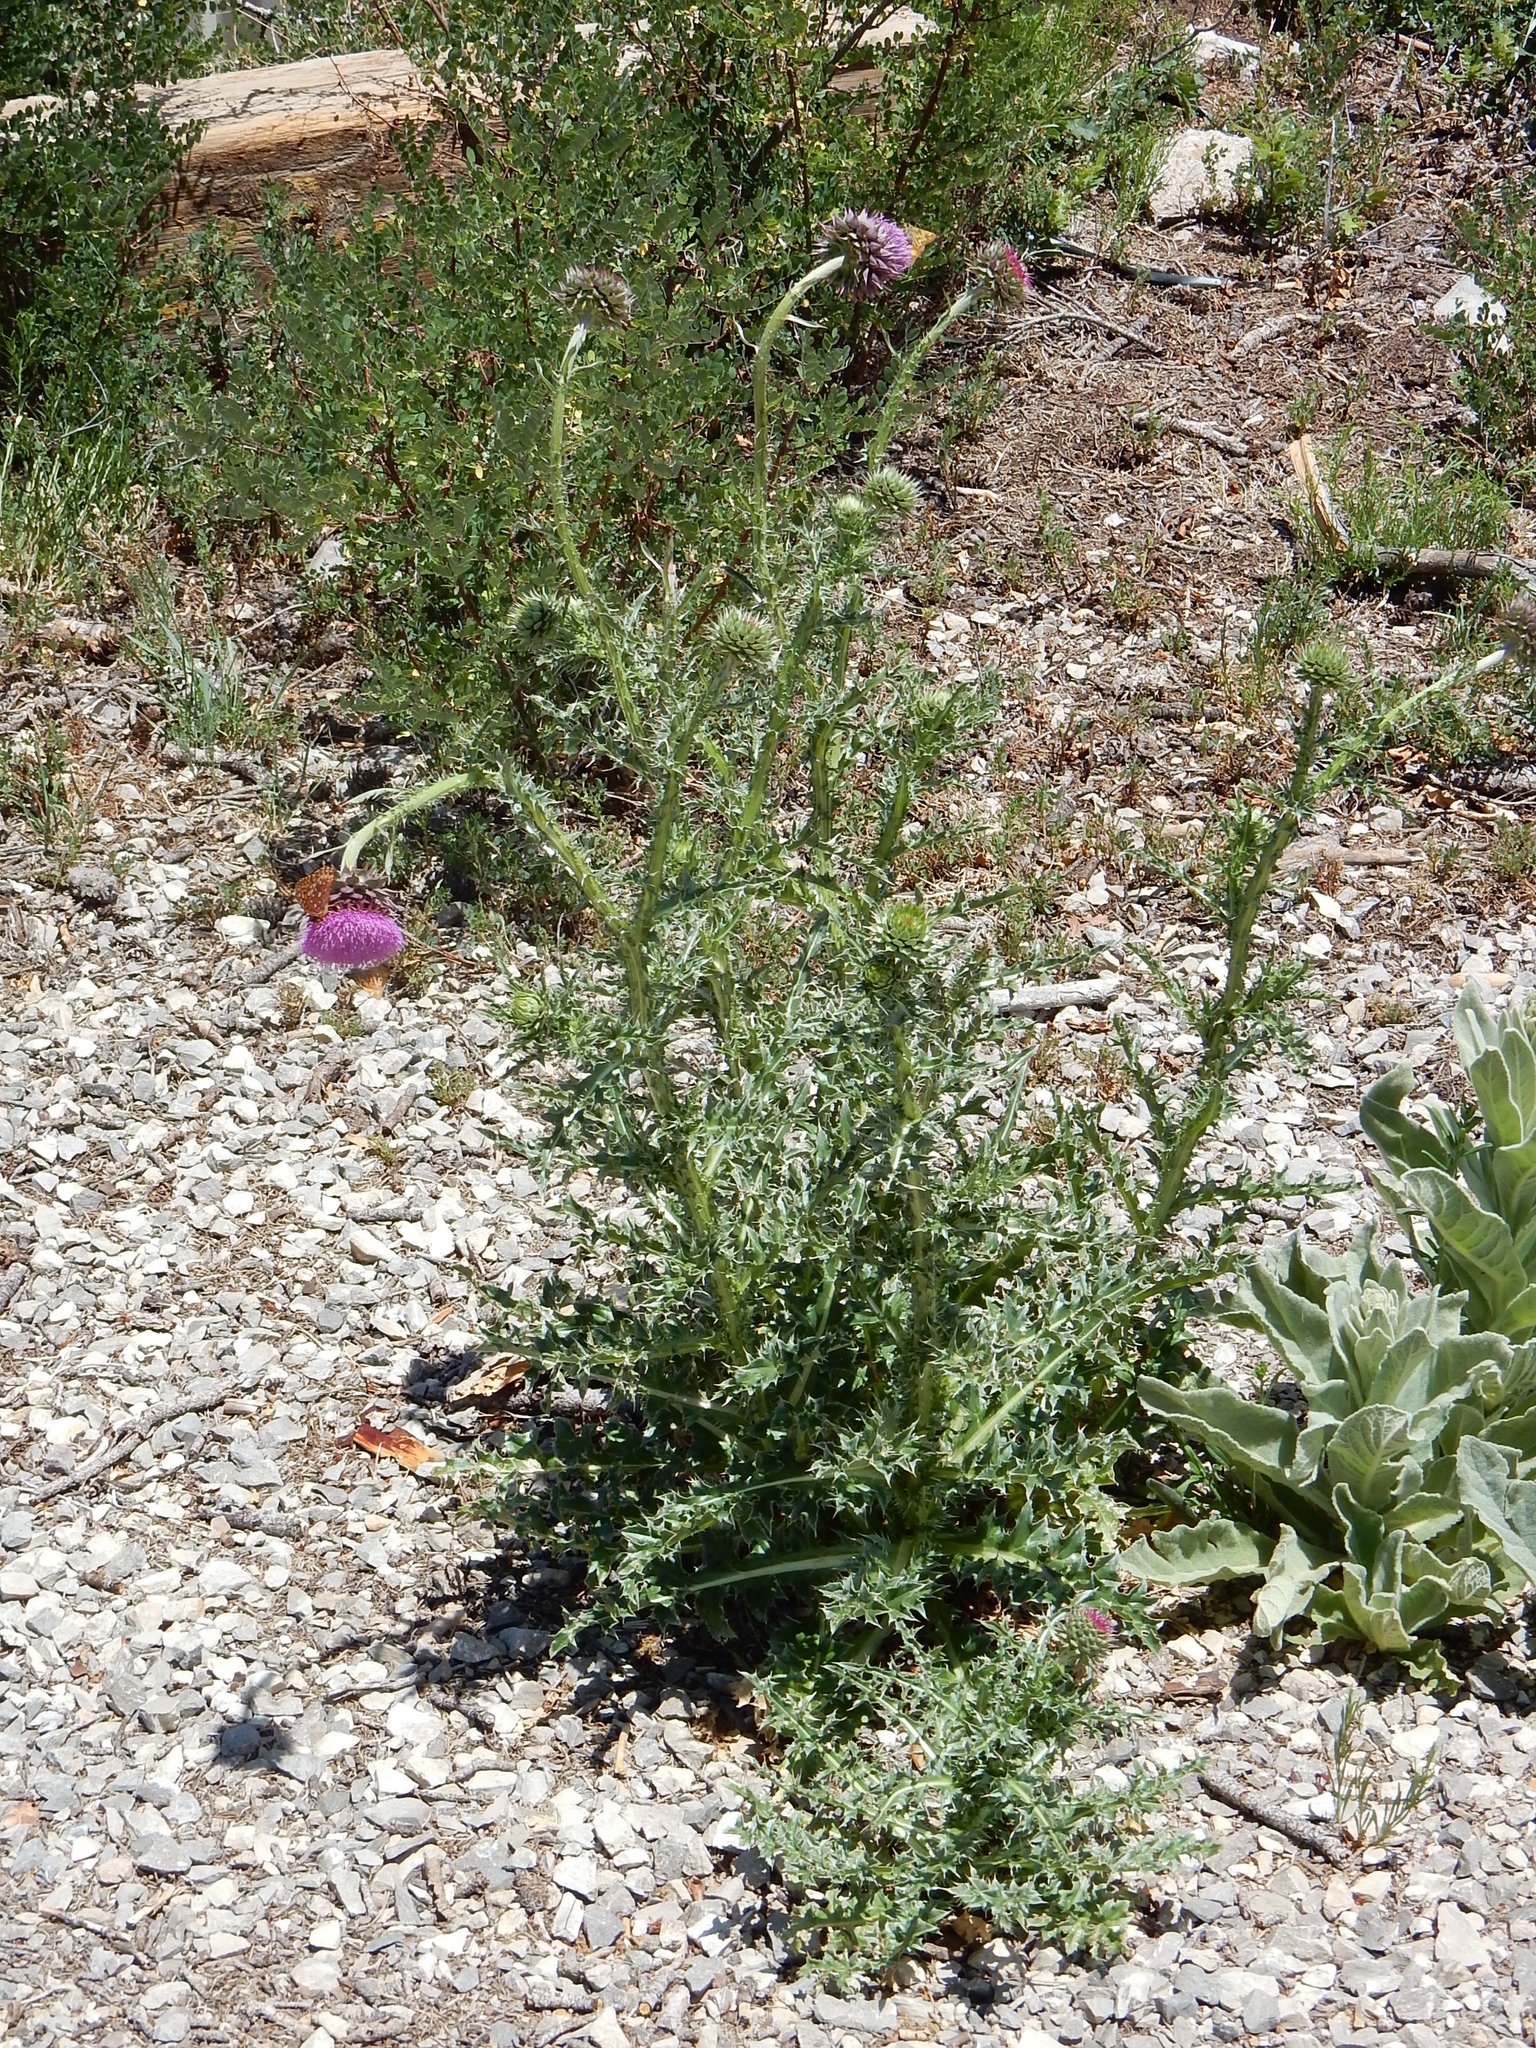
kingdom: Plantae
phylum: Tracheophyta
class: Magnoliopsida
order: Asterales
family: Asteraceae
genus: Carduus
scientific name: Carduus nutans
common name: Musk thistle
